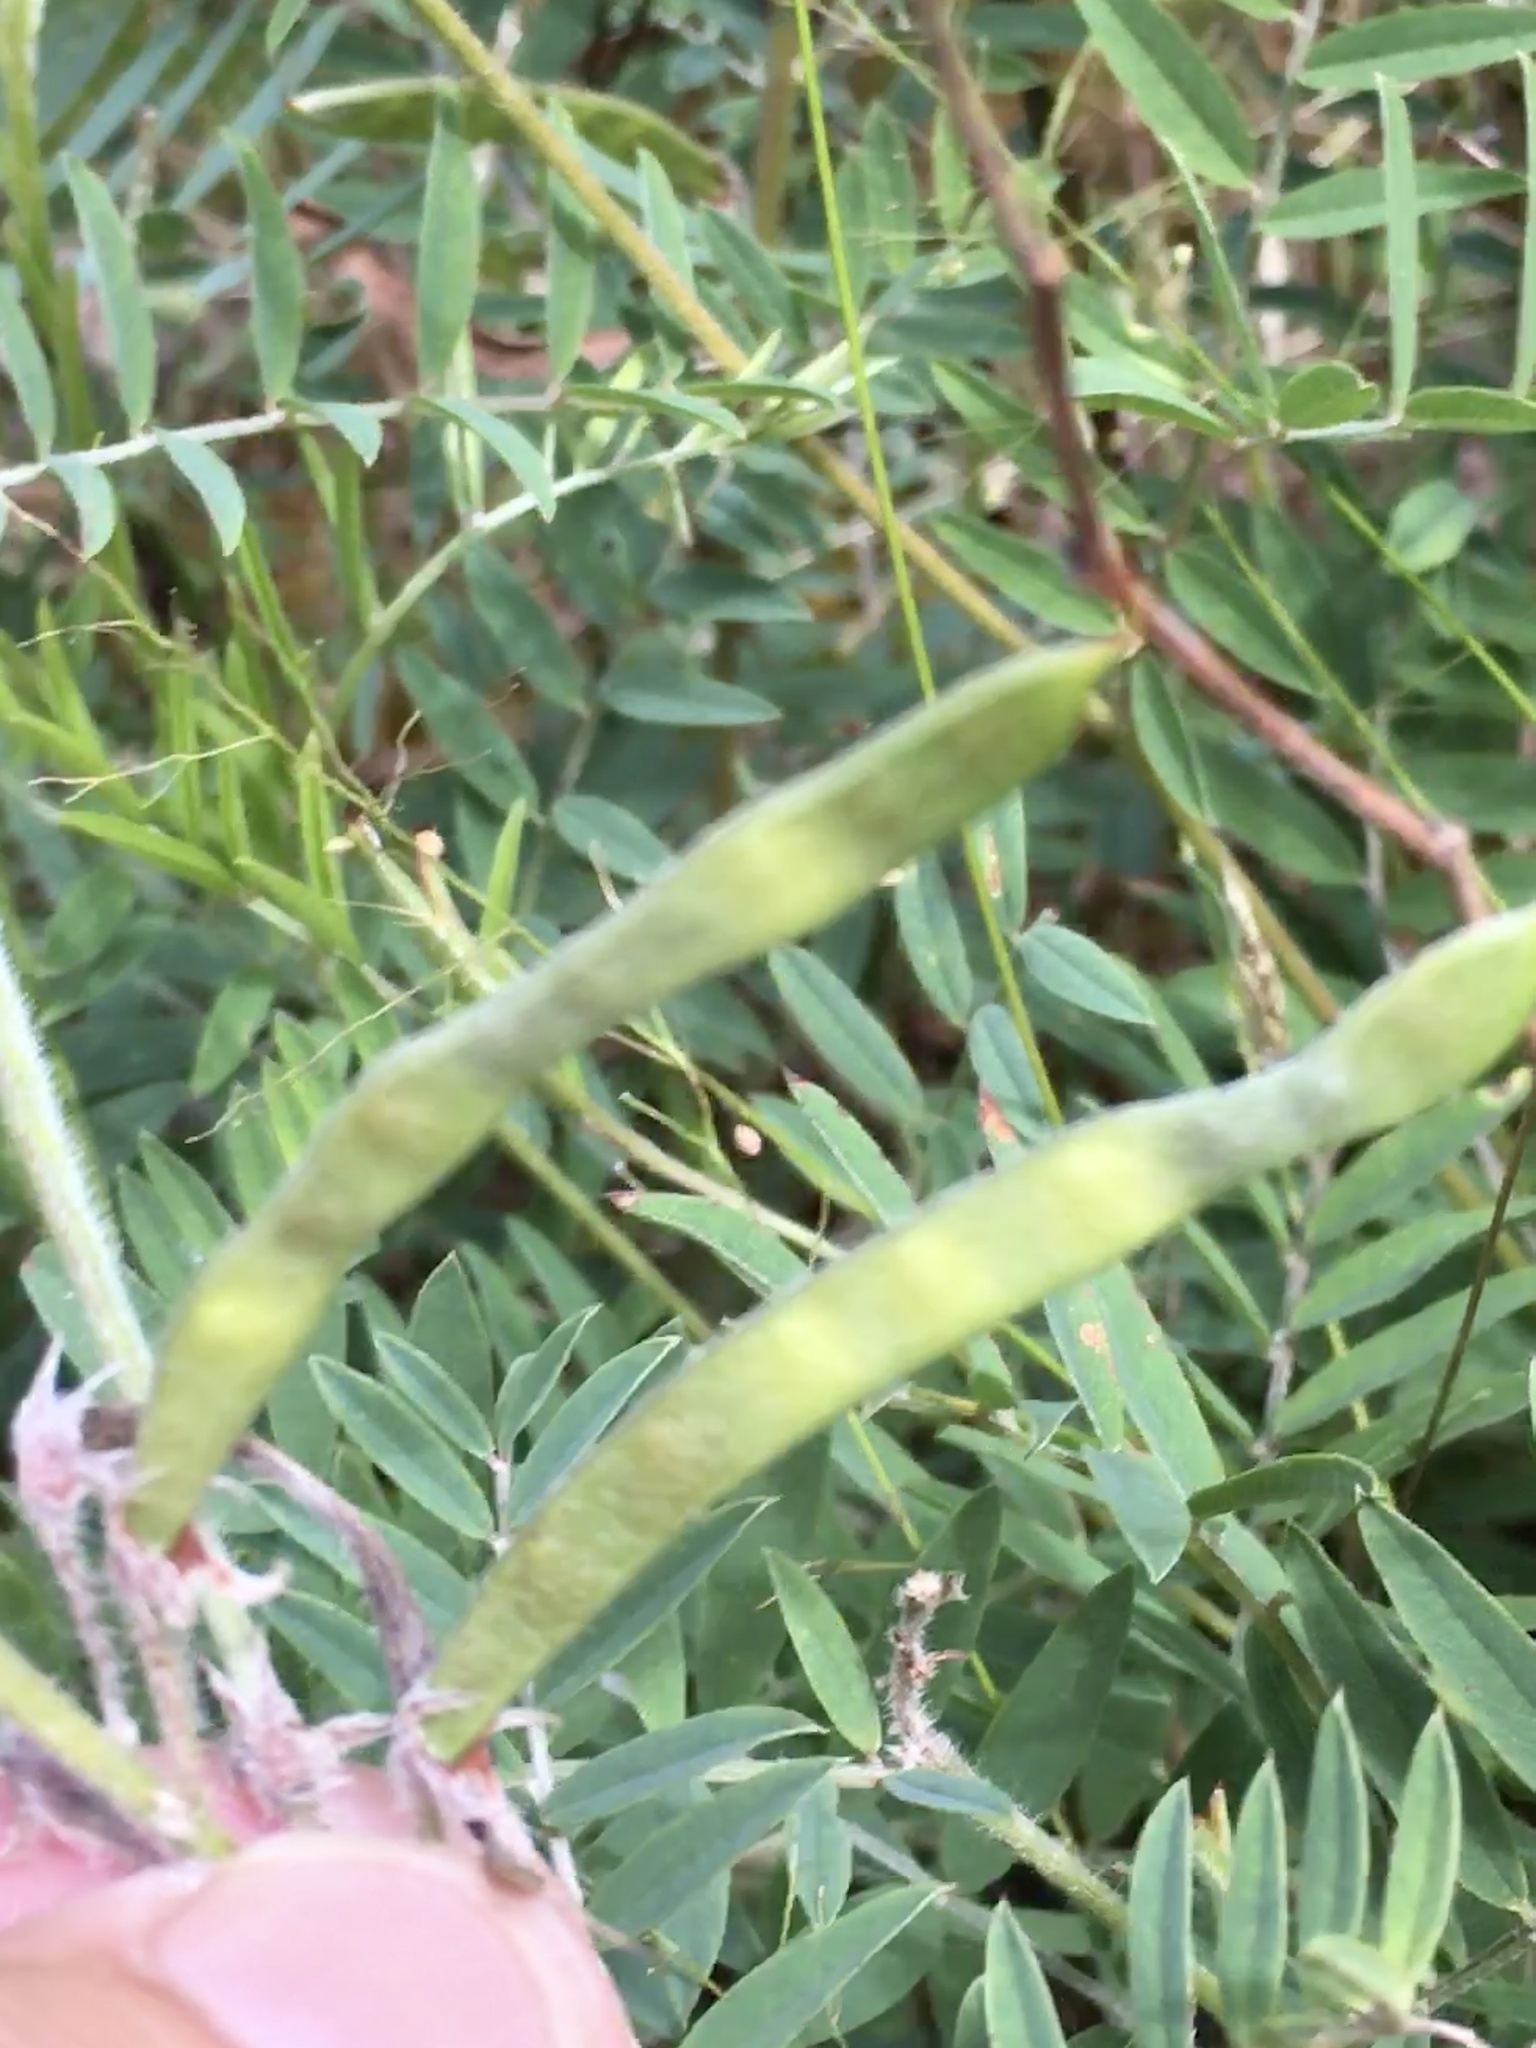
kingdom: Plantae
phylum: Tracheophyta
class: Magnoliopsida
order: Fabales
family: Fabaceae
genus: Tephrosia
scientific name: Tephrosia virginiana
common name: Rabbit-pea
